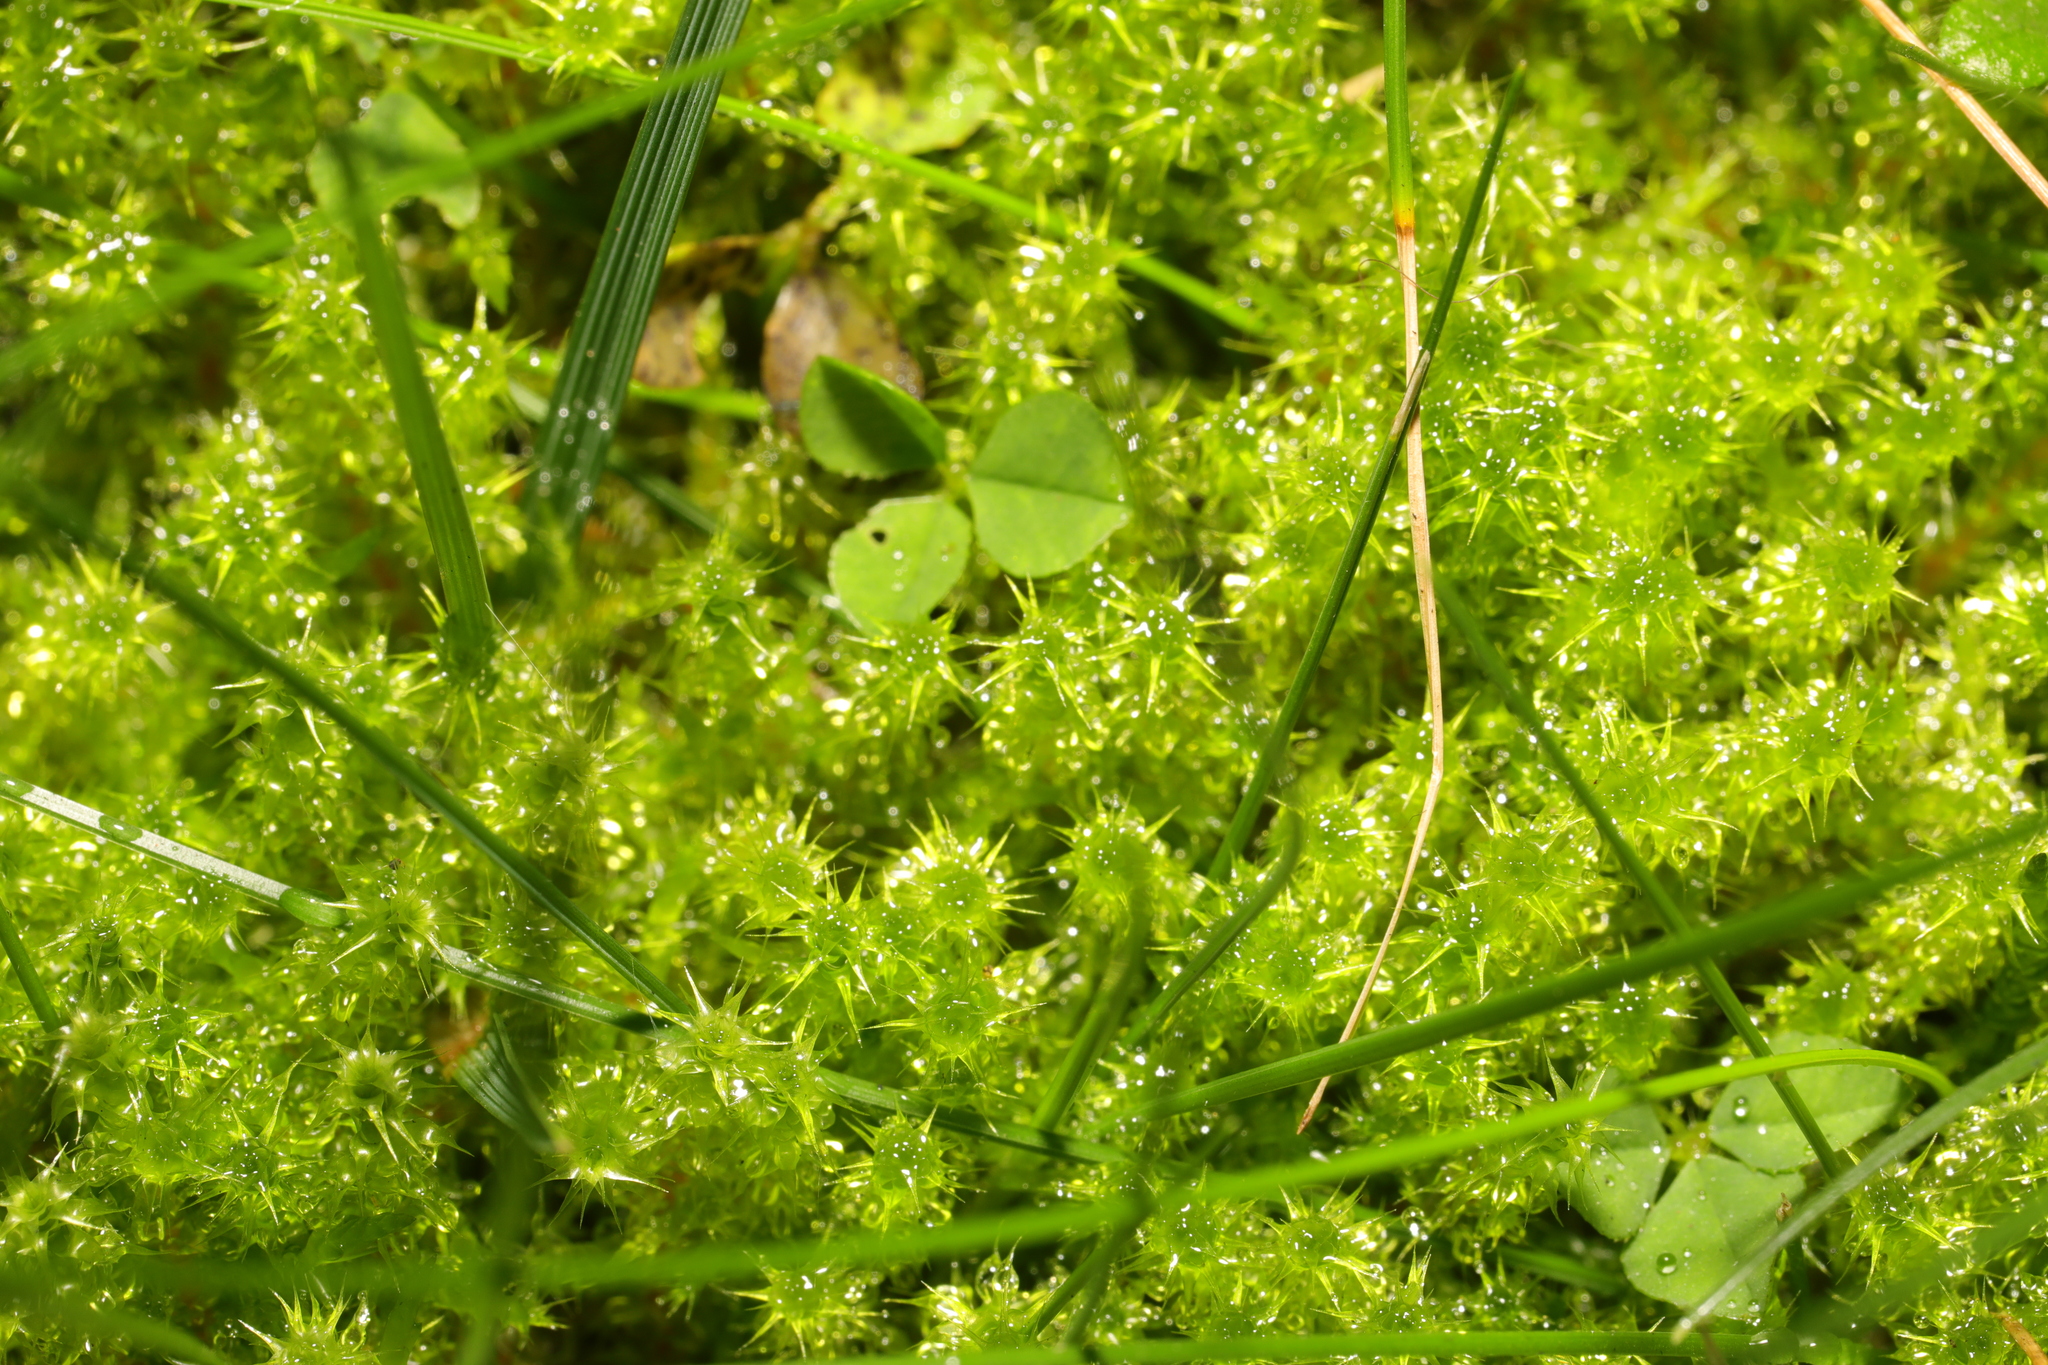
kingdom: Plantae
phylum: Bryophyta
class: Bryopsida
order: Hypnales
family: Hylocomiaceae
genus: Rhytidiadelphus
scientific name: Rhytidiadelphus squarrosus
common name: Springy turf-moss
